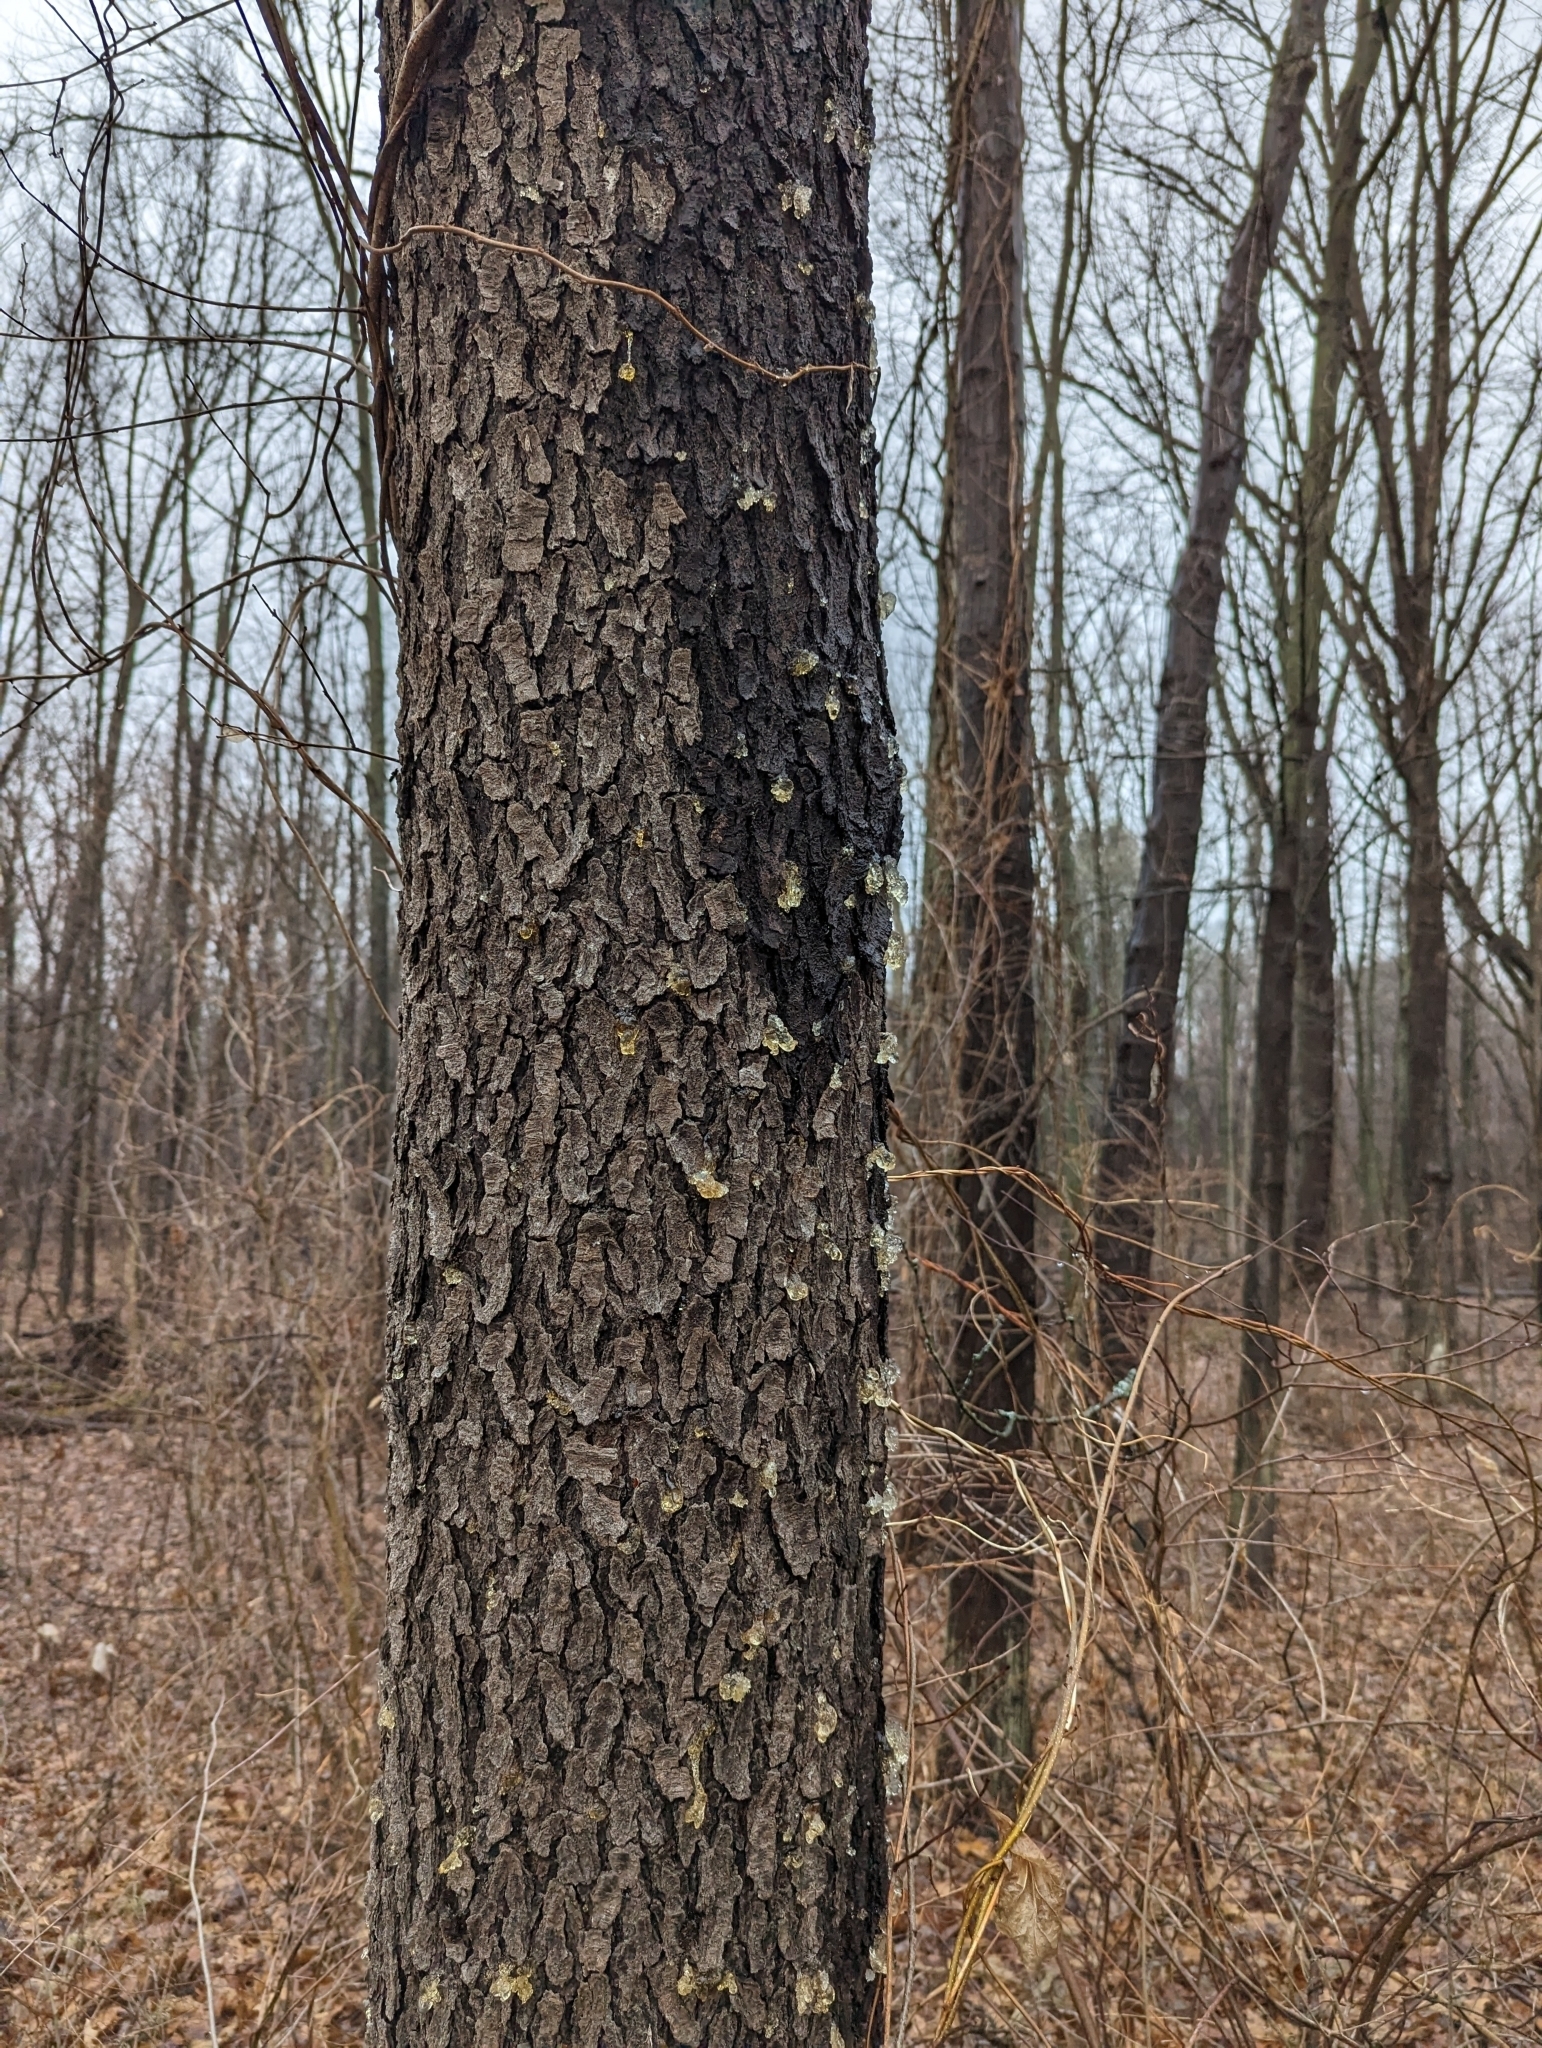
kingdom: Plantae
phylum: Tracheophyta
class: Magnoliopsida
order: Rosales
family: Rosaceae
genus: Prunus
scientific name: Prunus serotina
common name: Black cherry
